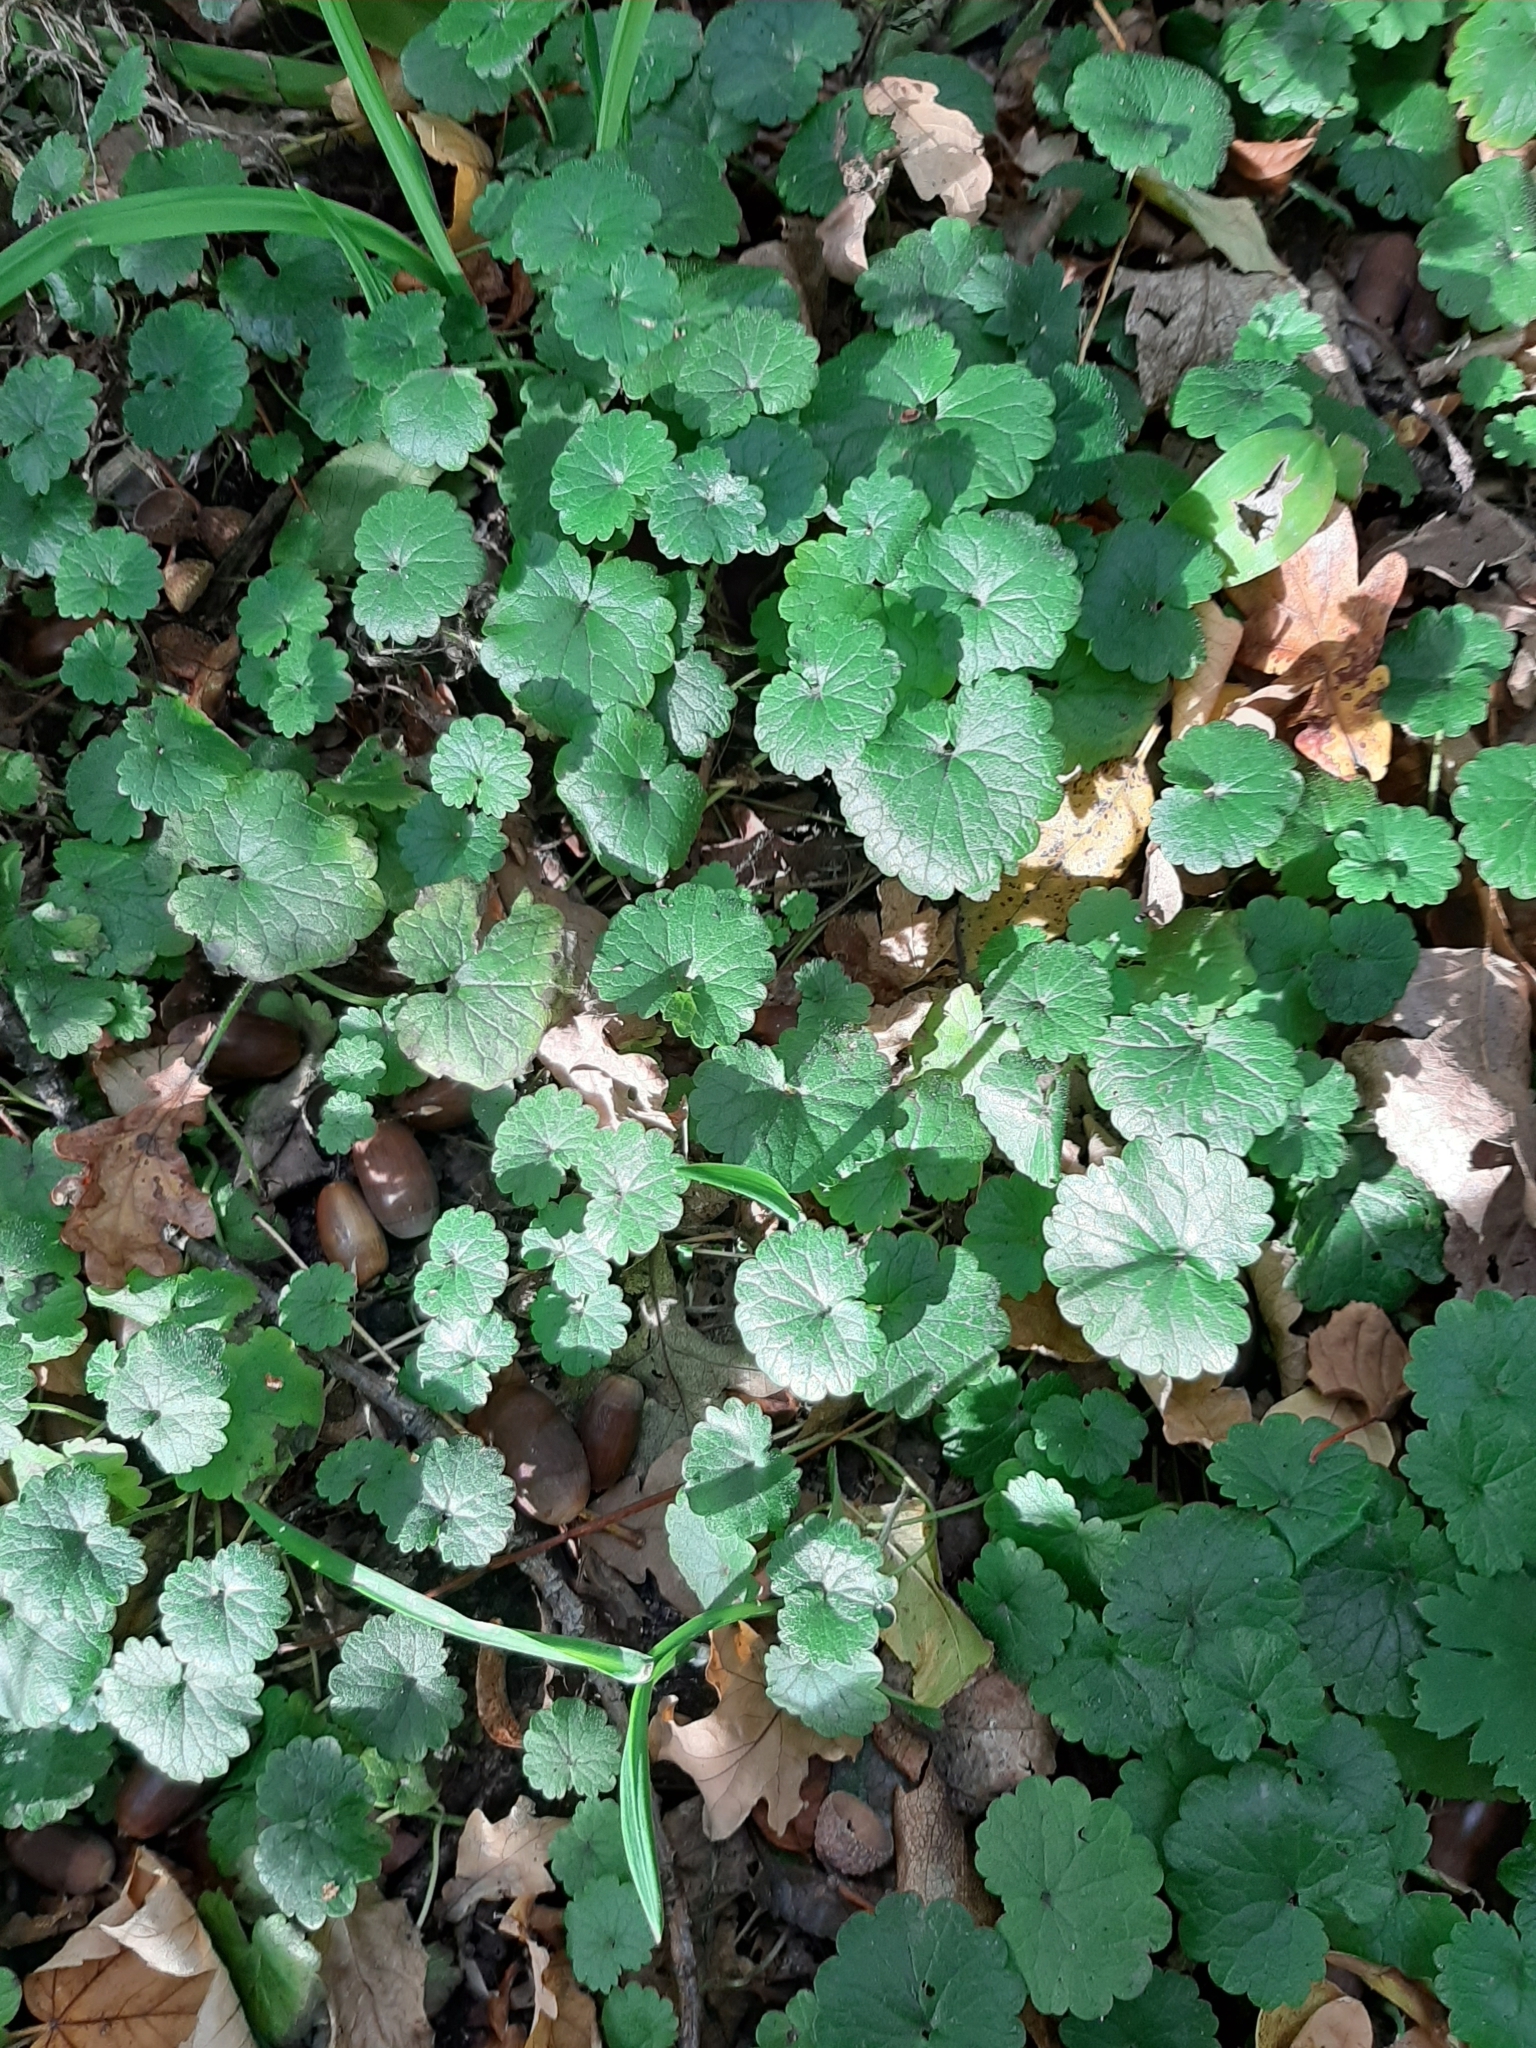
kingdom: Plantae
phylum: Tracheophyta
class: Magnoliopsida
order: Lamiales
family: Lamiaceae
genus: Glechoma
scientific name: Glechoma hederacea
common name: Ground ivy
